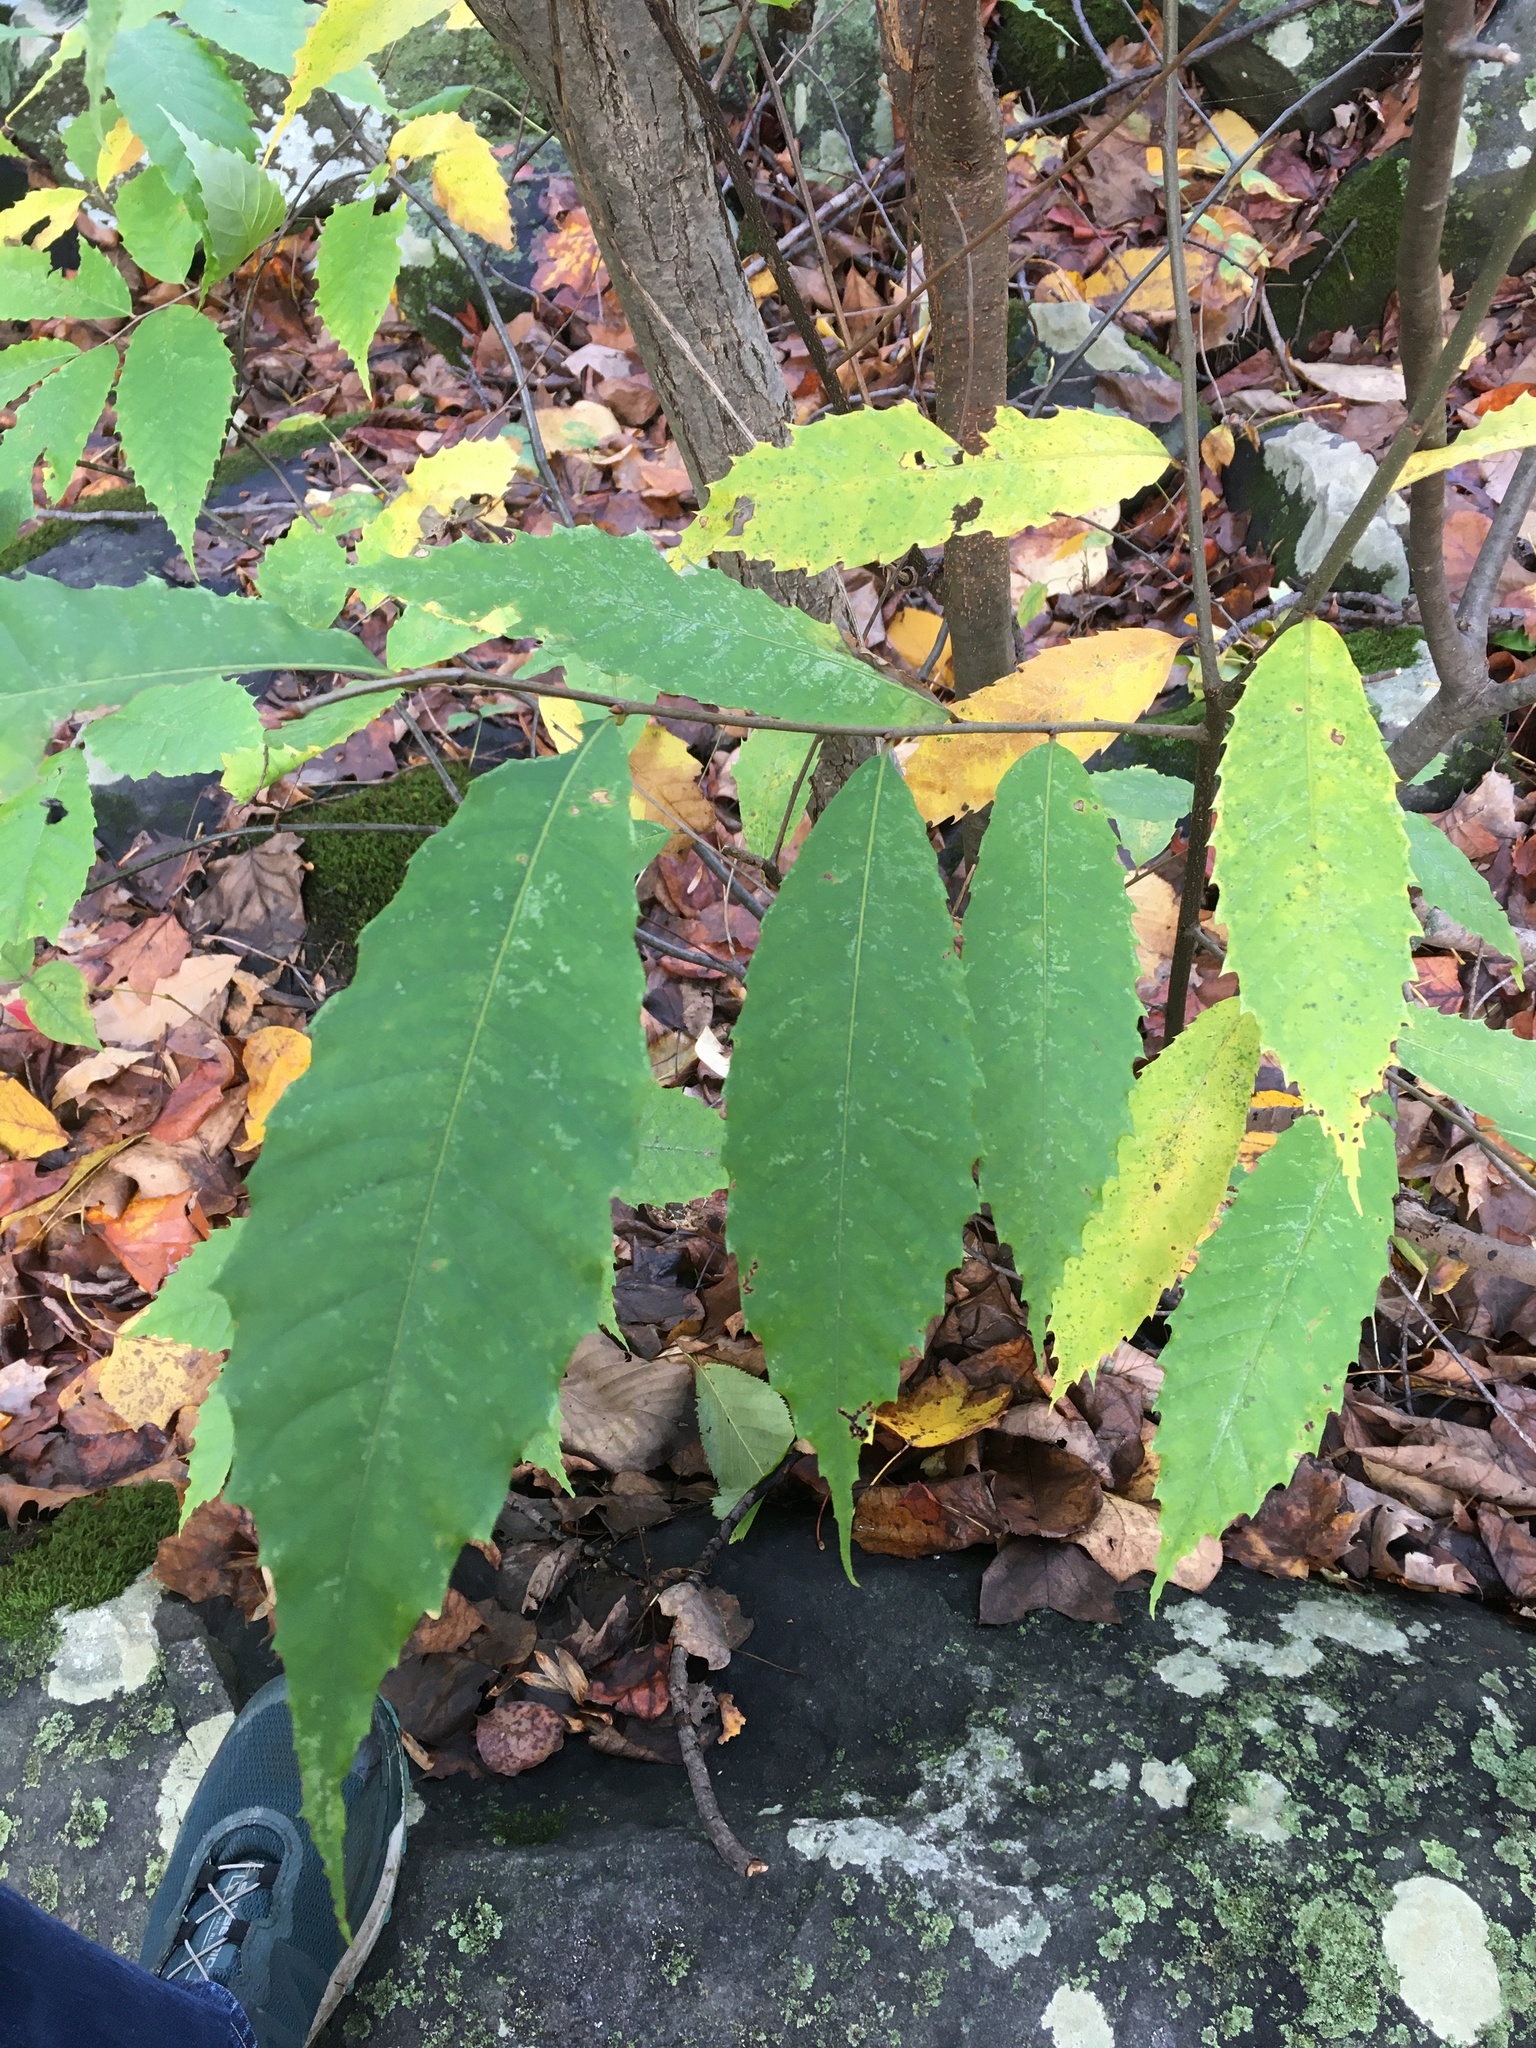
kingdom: Plantae
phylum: Tracheophyta
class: Magnoliopsida
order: Fagales
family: Fagaceae
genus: Castanea
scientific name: Castanea dentata
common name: American chestnut
